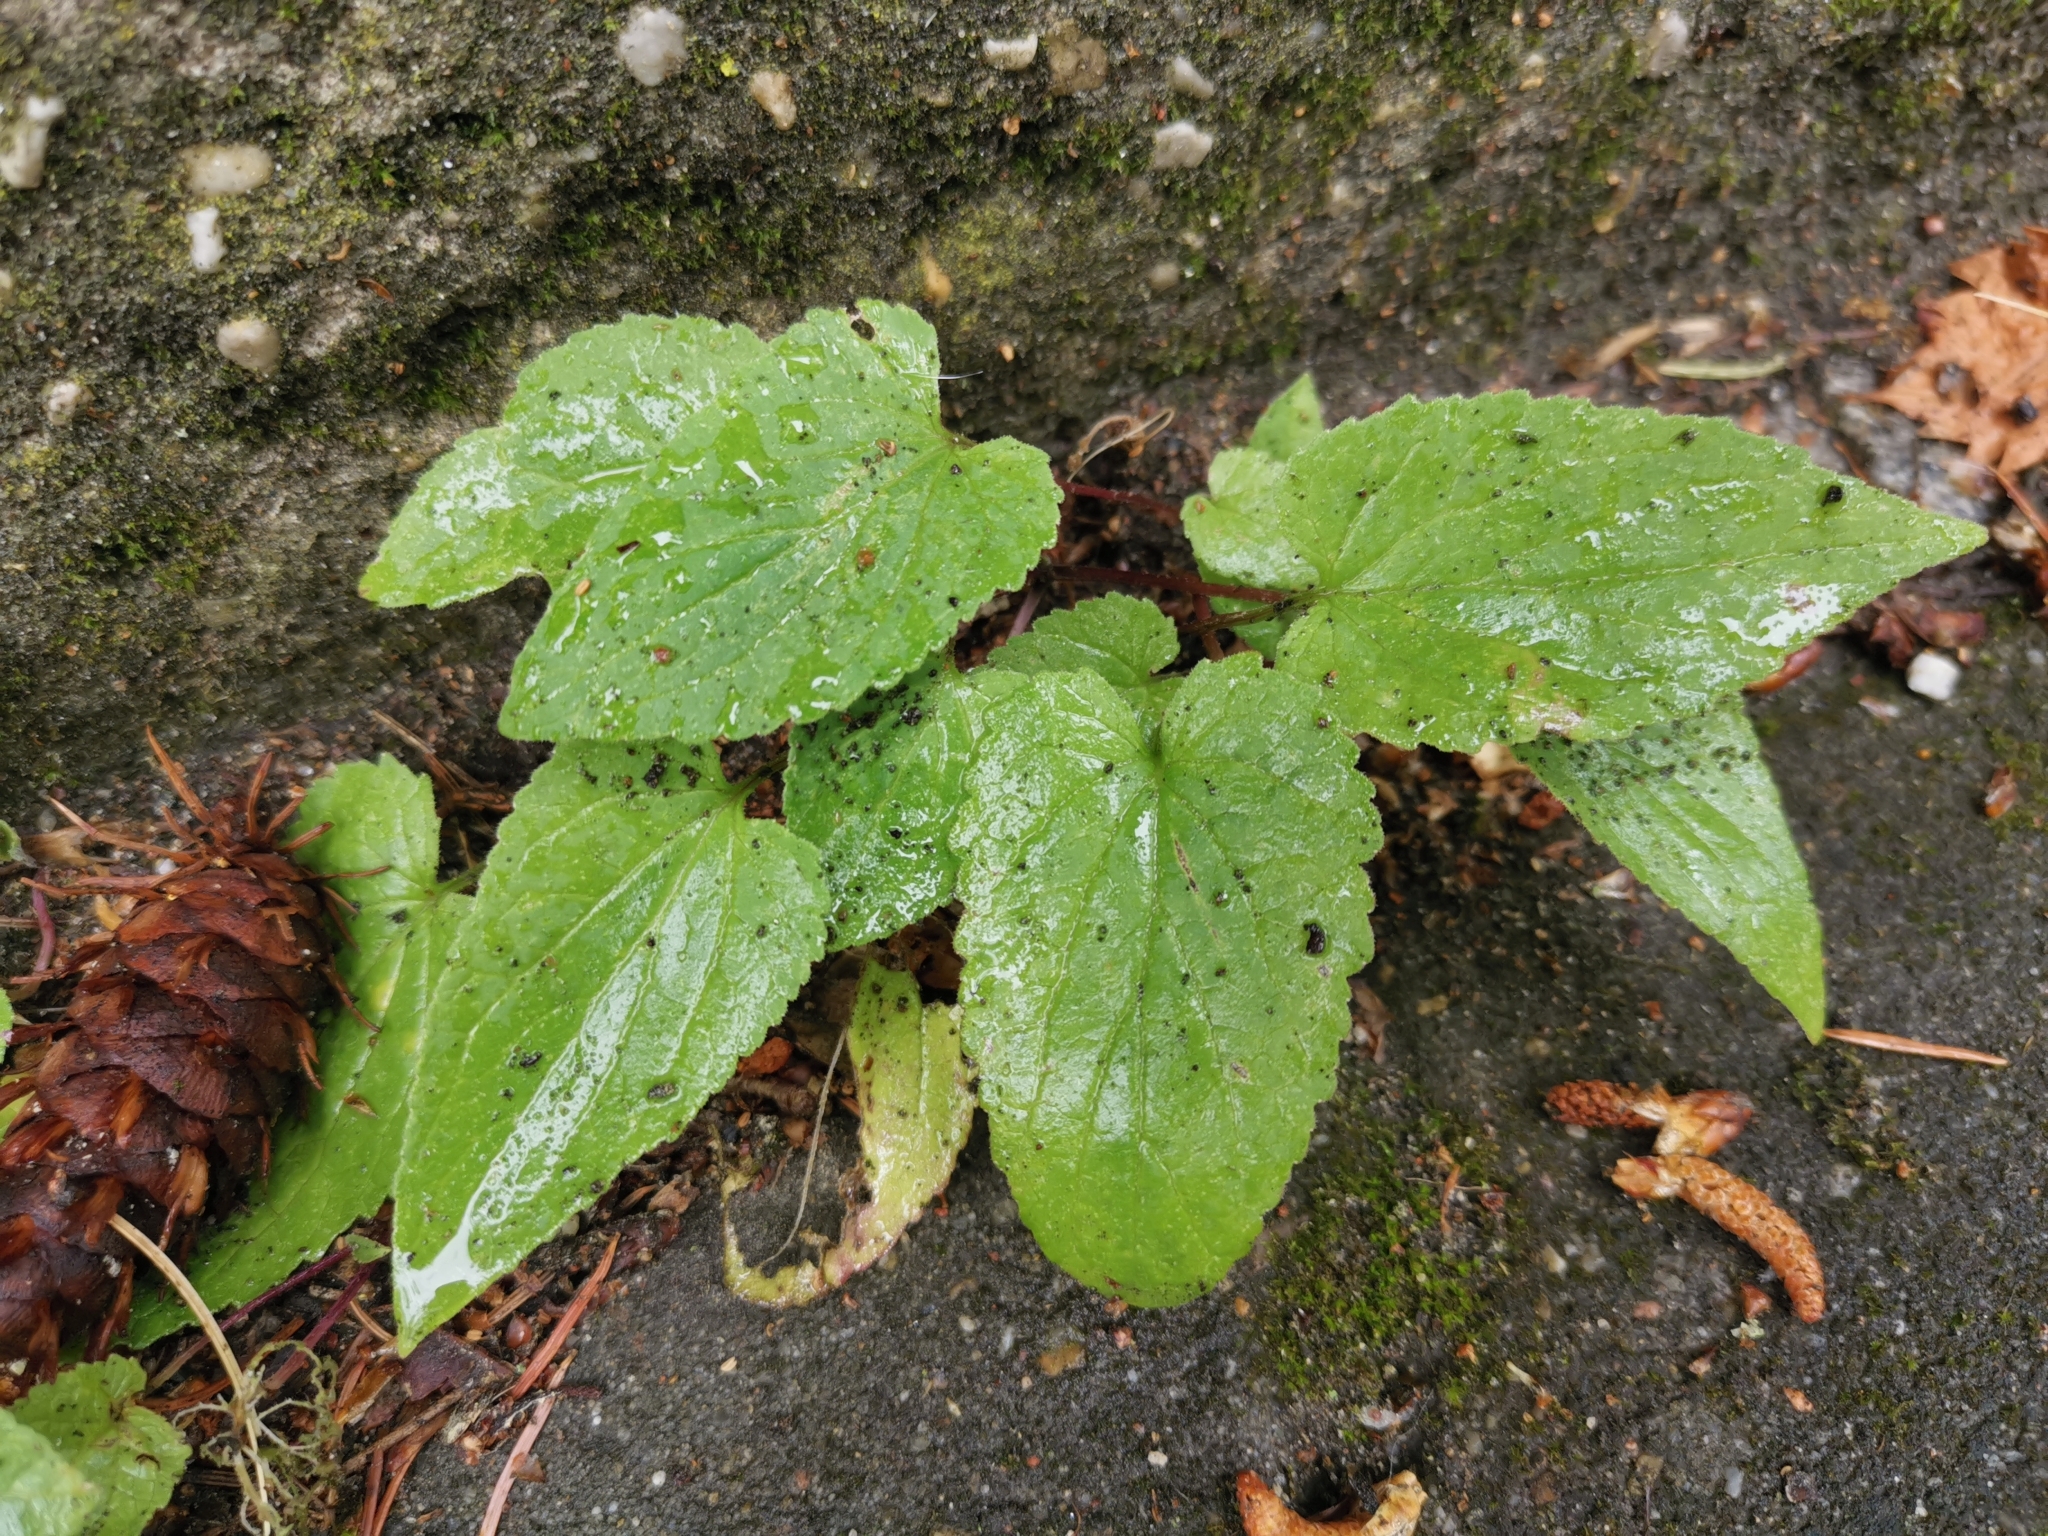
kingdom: Plantae
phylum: Tracheophyta
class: Magnoliopsida
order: Asterales
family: Campanulaceae
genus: Campanula
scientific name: Campanula rapunculoides
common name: Creeping bellflower
